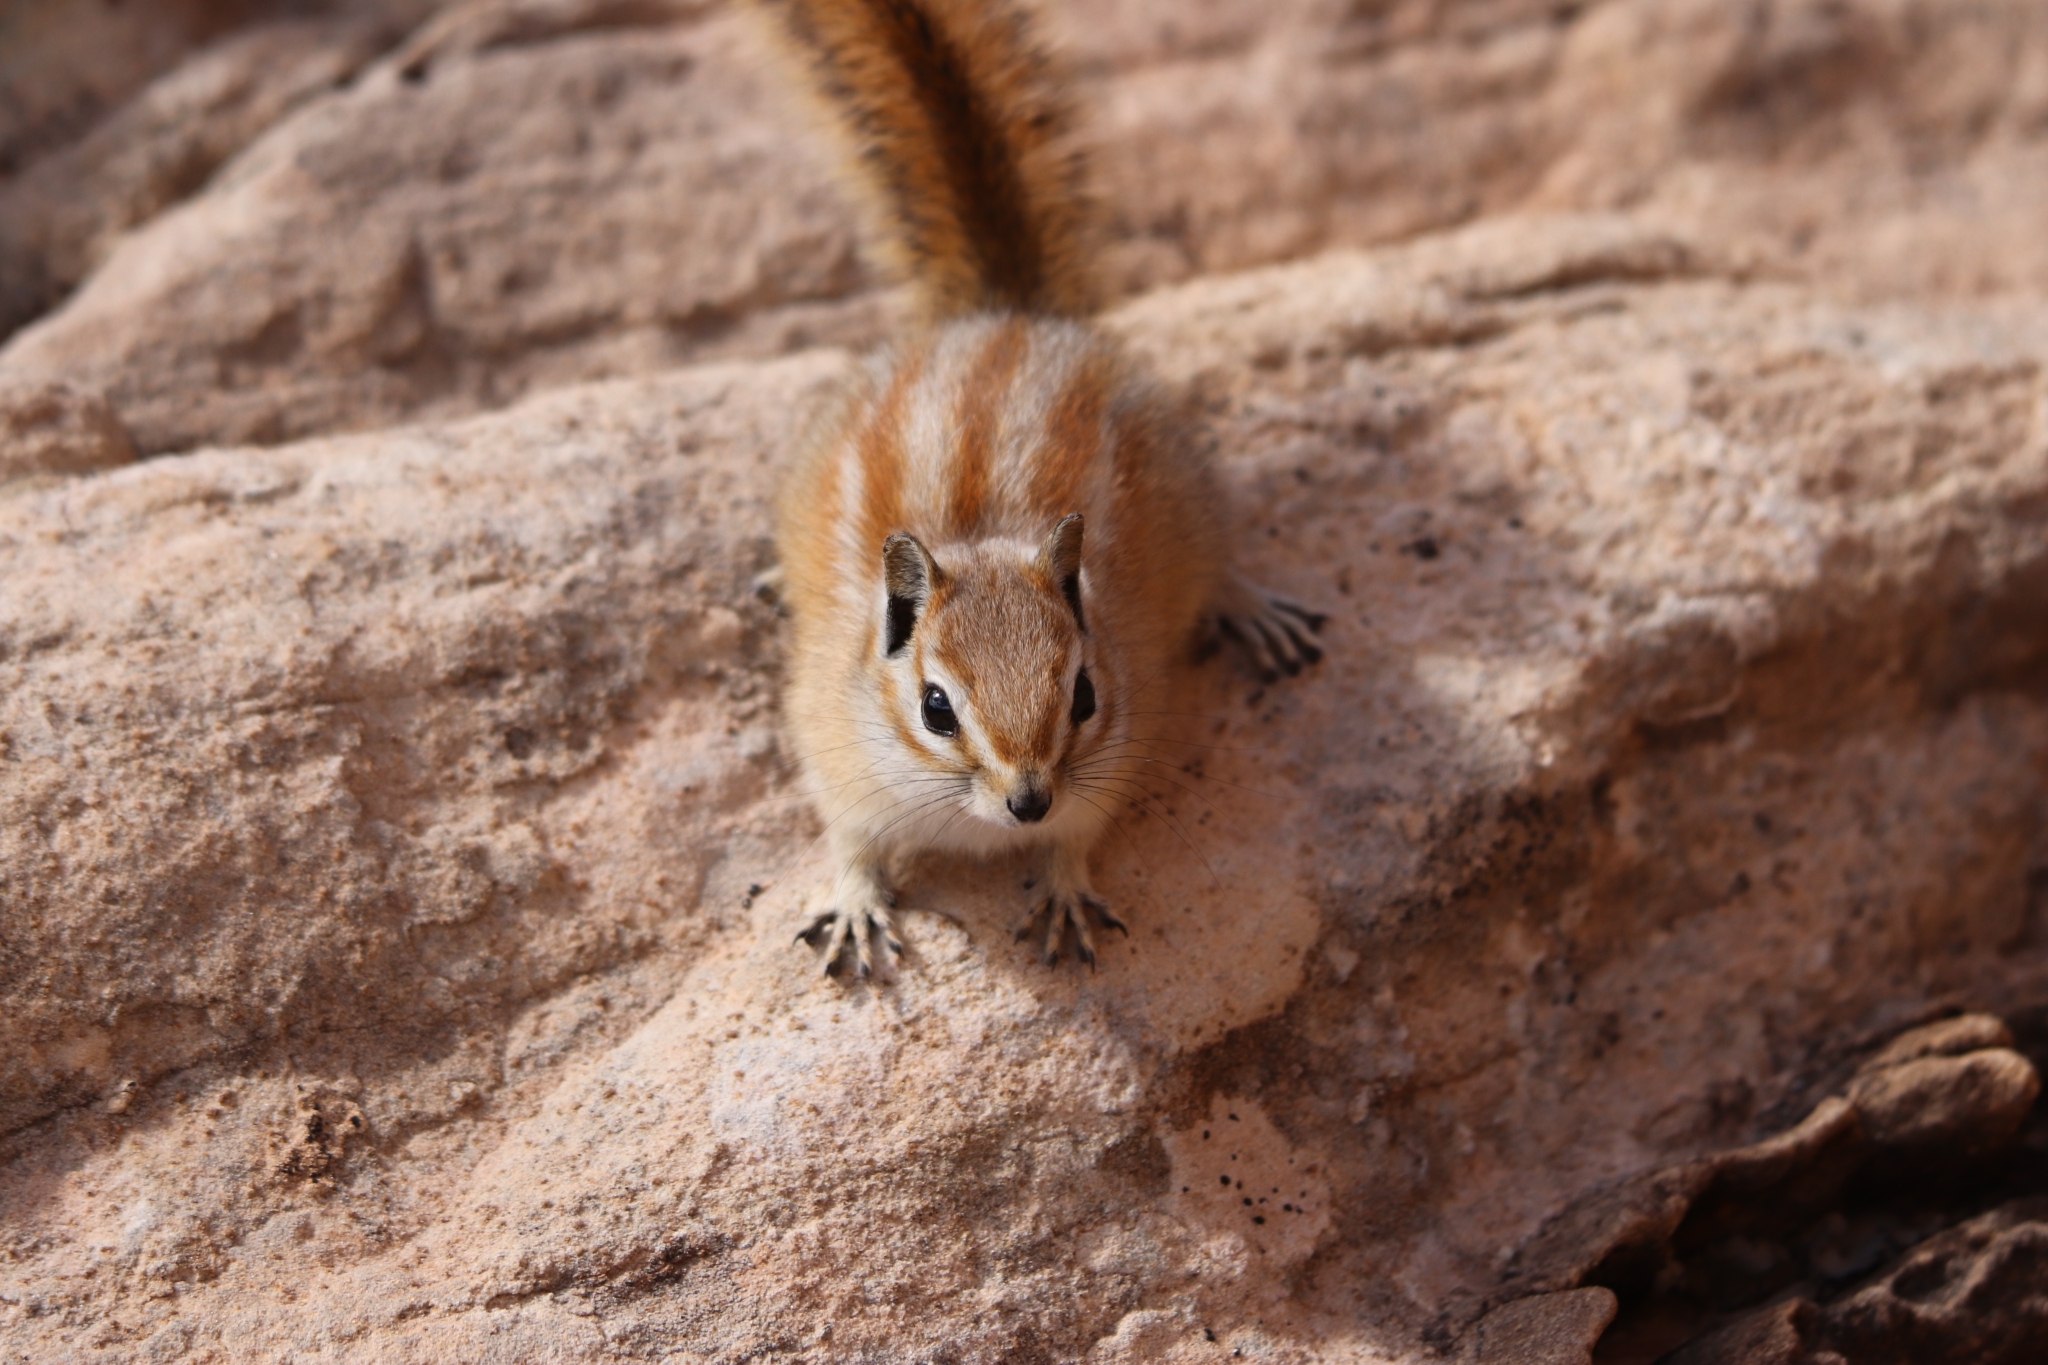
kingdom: Animalia
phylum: Chordata
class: Mammalia
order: Rodentia
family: Sciuridae
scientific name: Sciuridae
